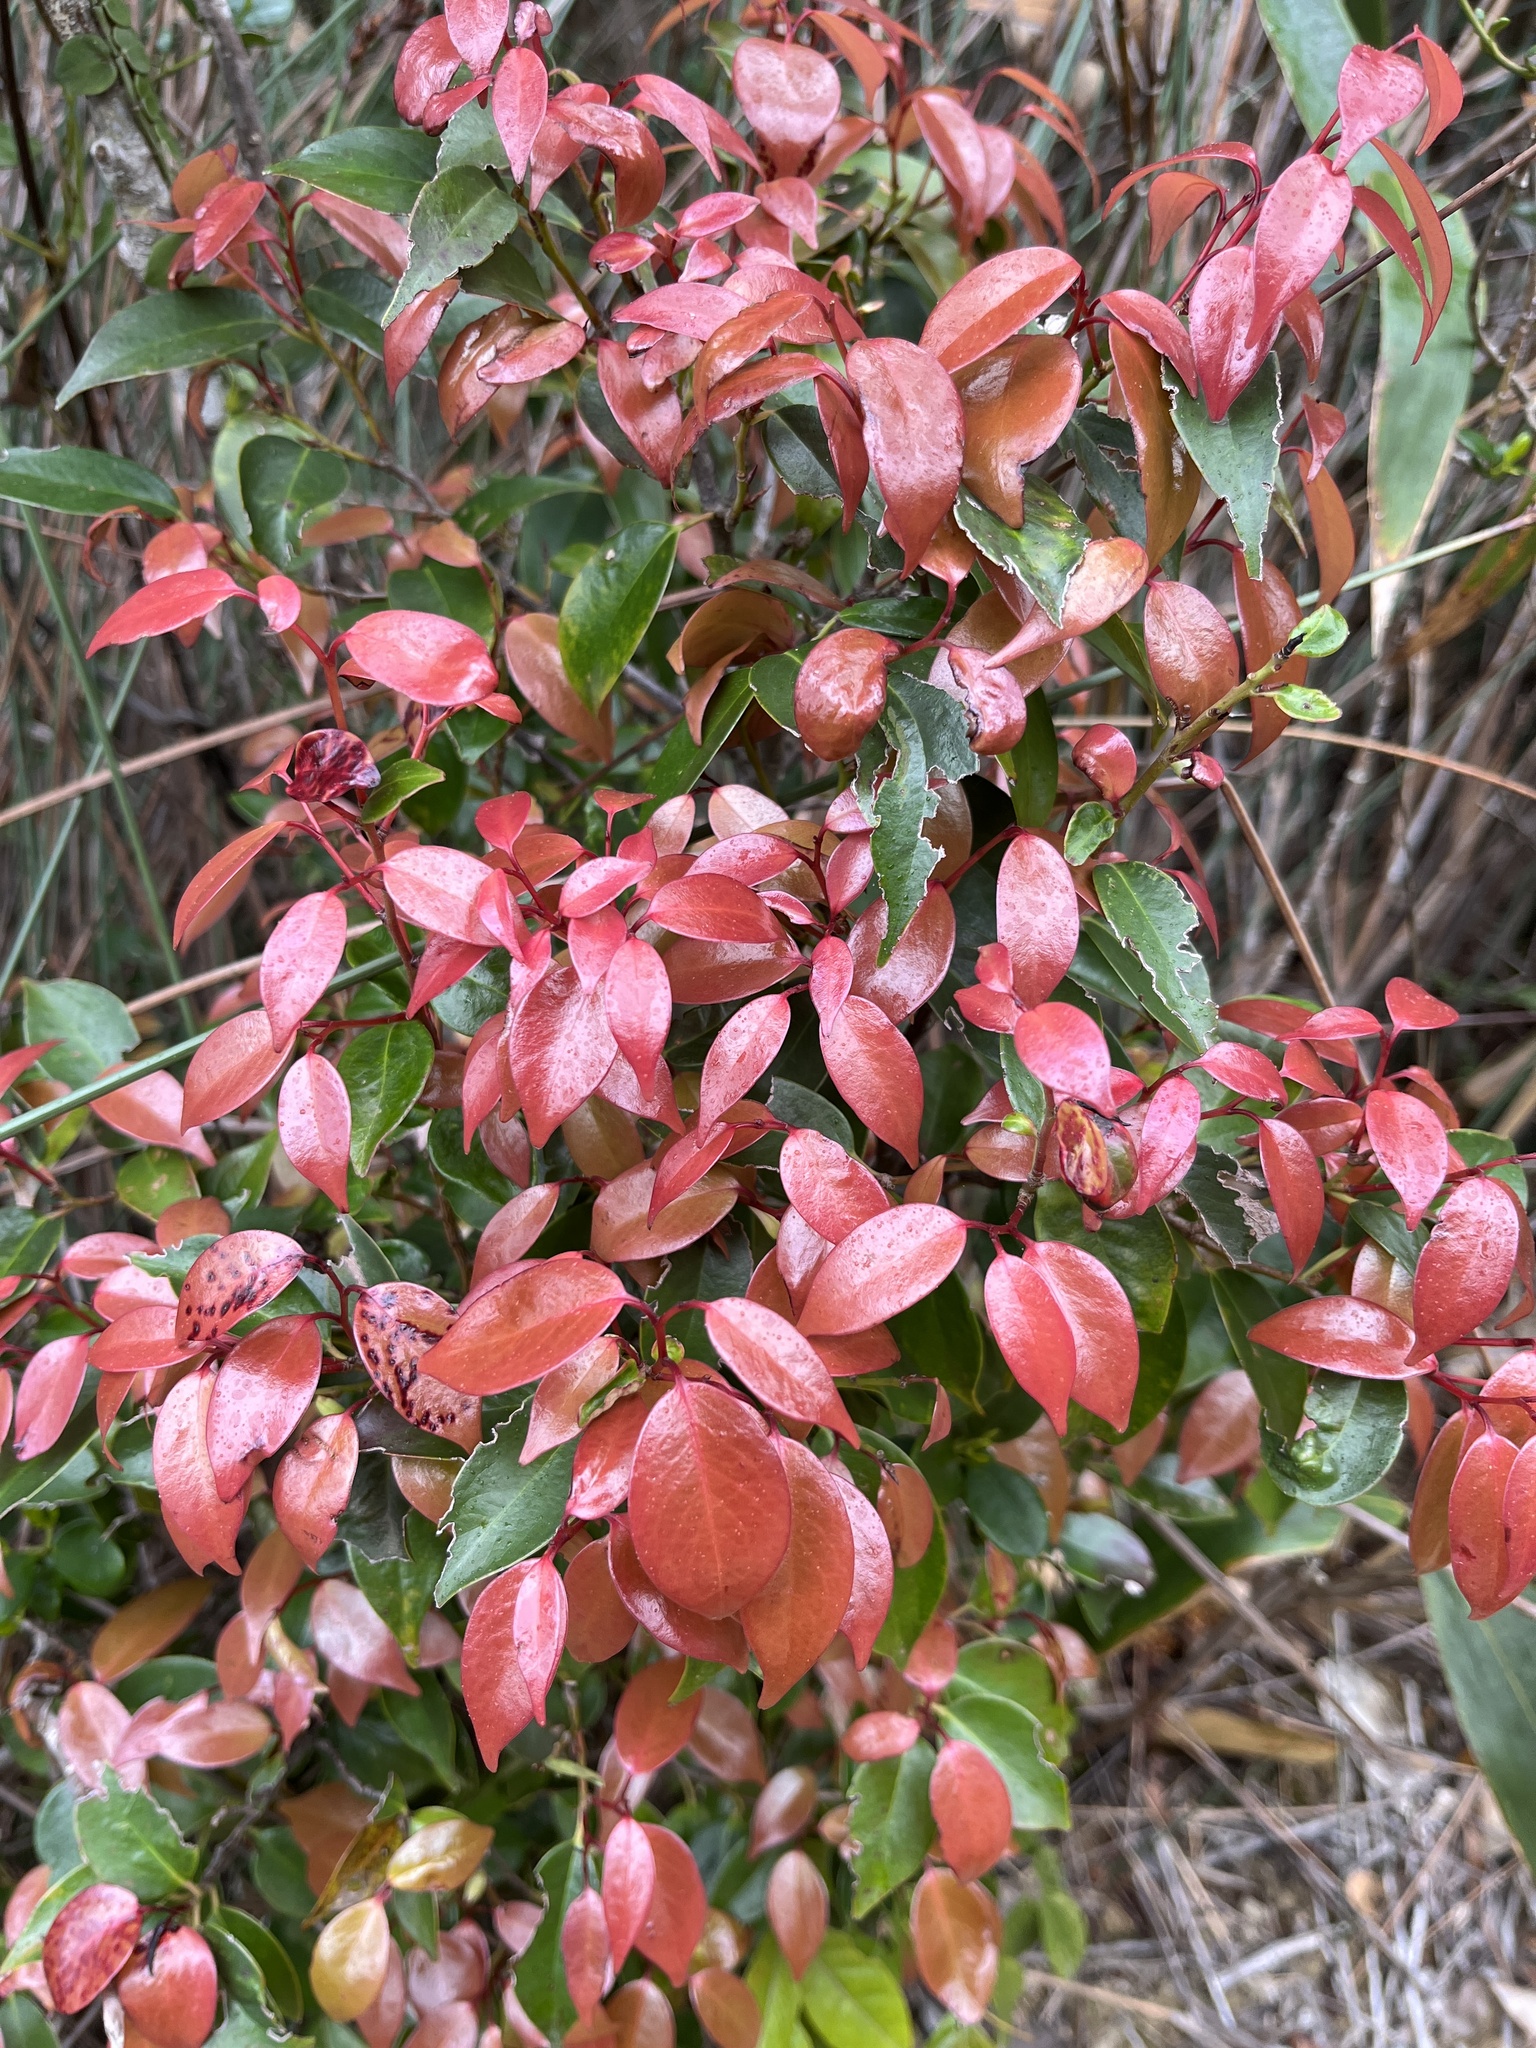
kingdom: Plantae
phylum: Tracheophyta
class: Magnoliopsida
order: Ericales
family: Pentaphylacaceae
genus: Pentaphylax
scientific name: Pentaphylax euryoides
